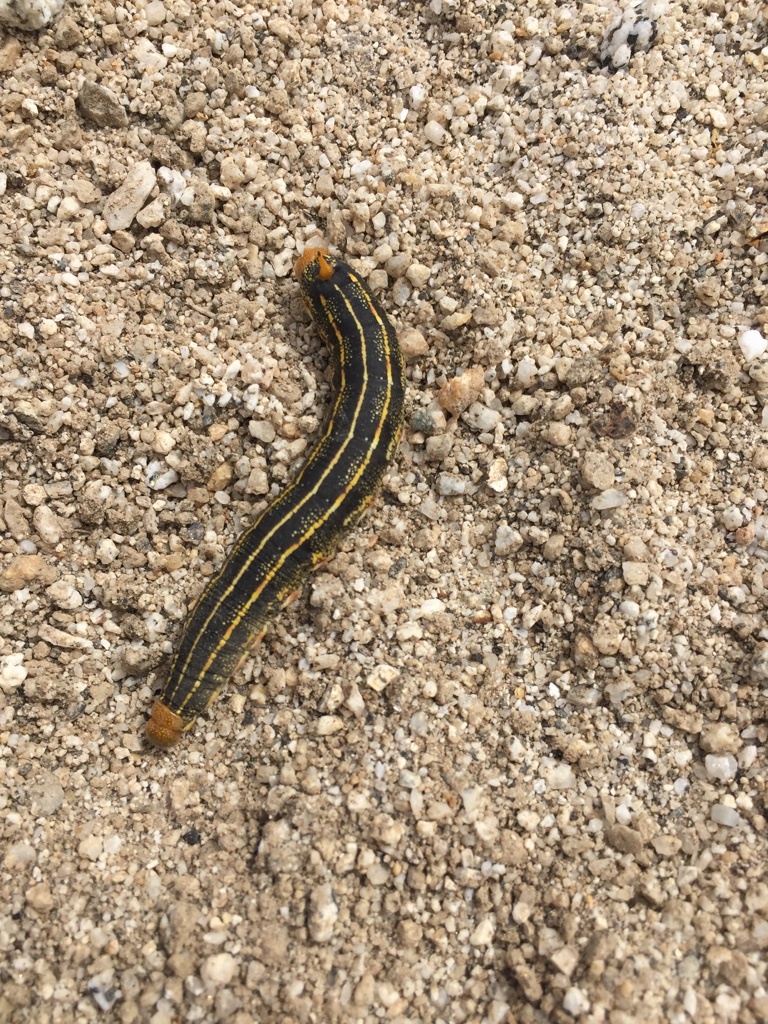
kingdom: Animalia
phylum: Arthropoda
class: Insecta
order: Lepidoptera
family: Sphingidae
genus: Hyles
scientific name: Hyles lineata
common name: White-lined sphinx
